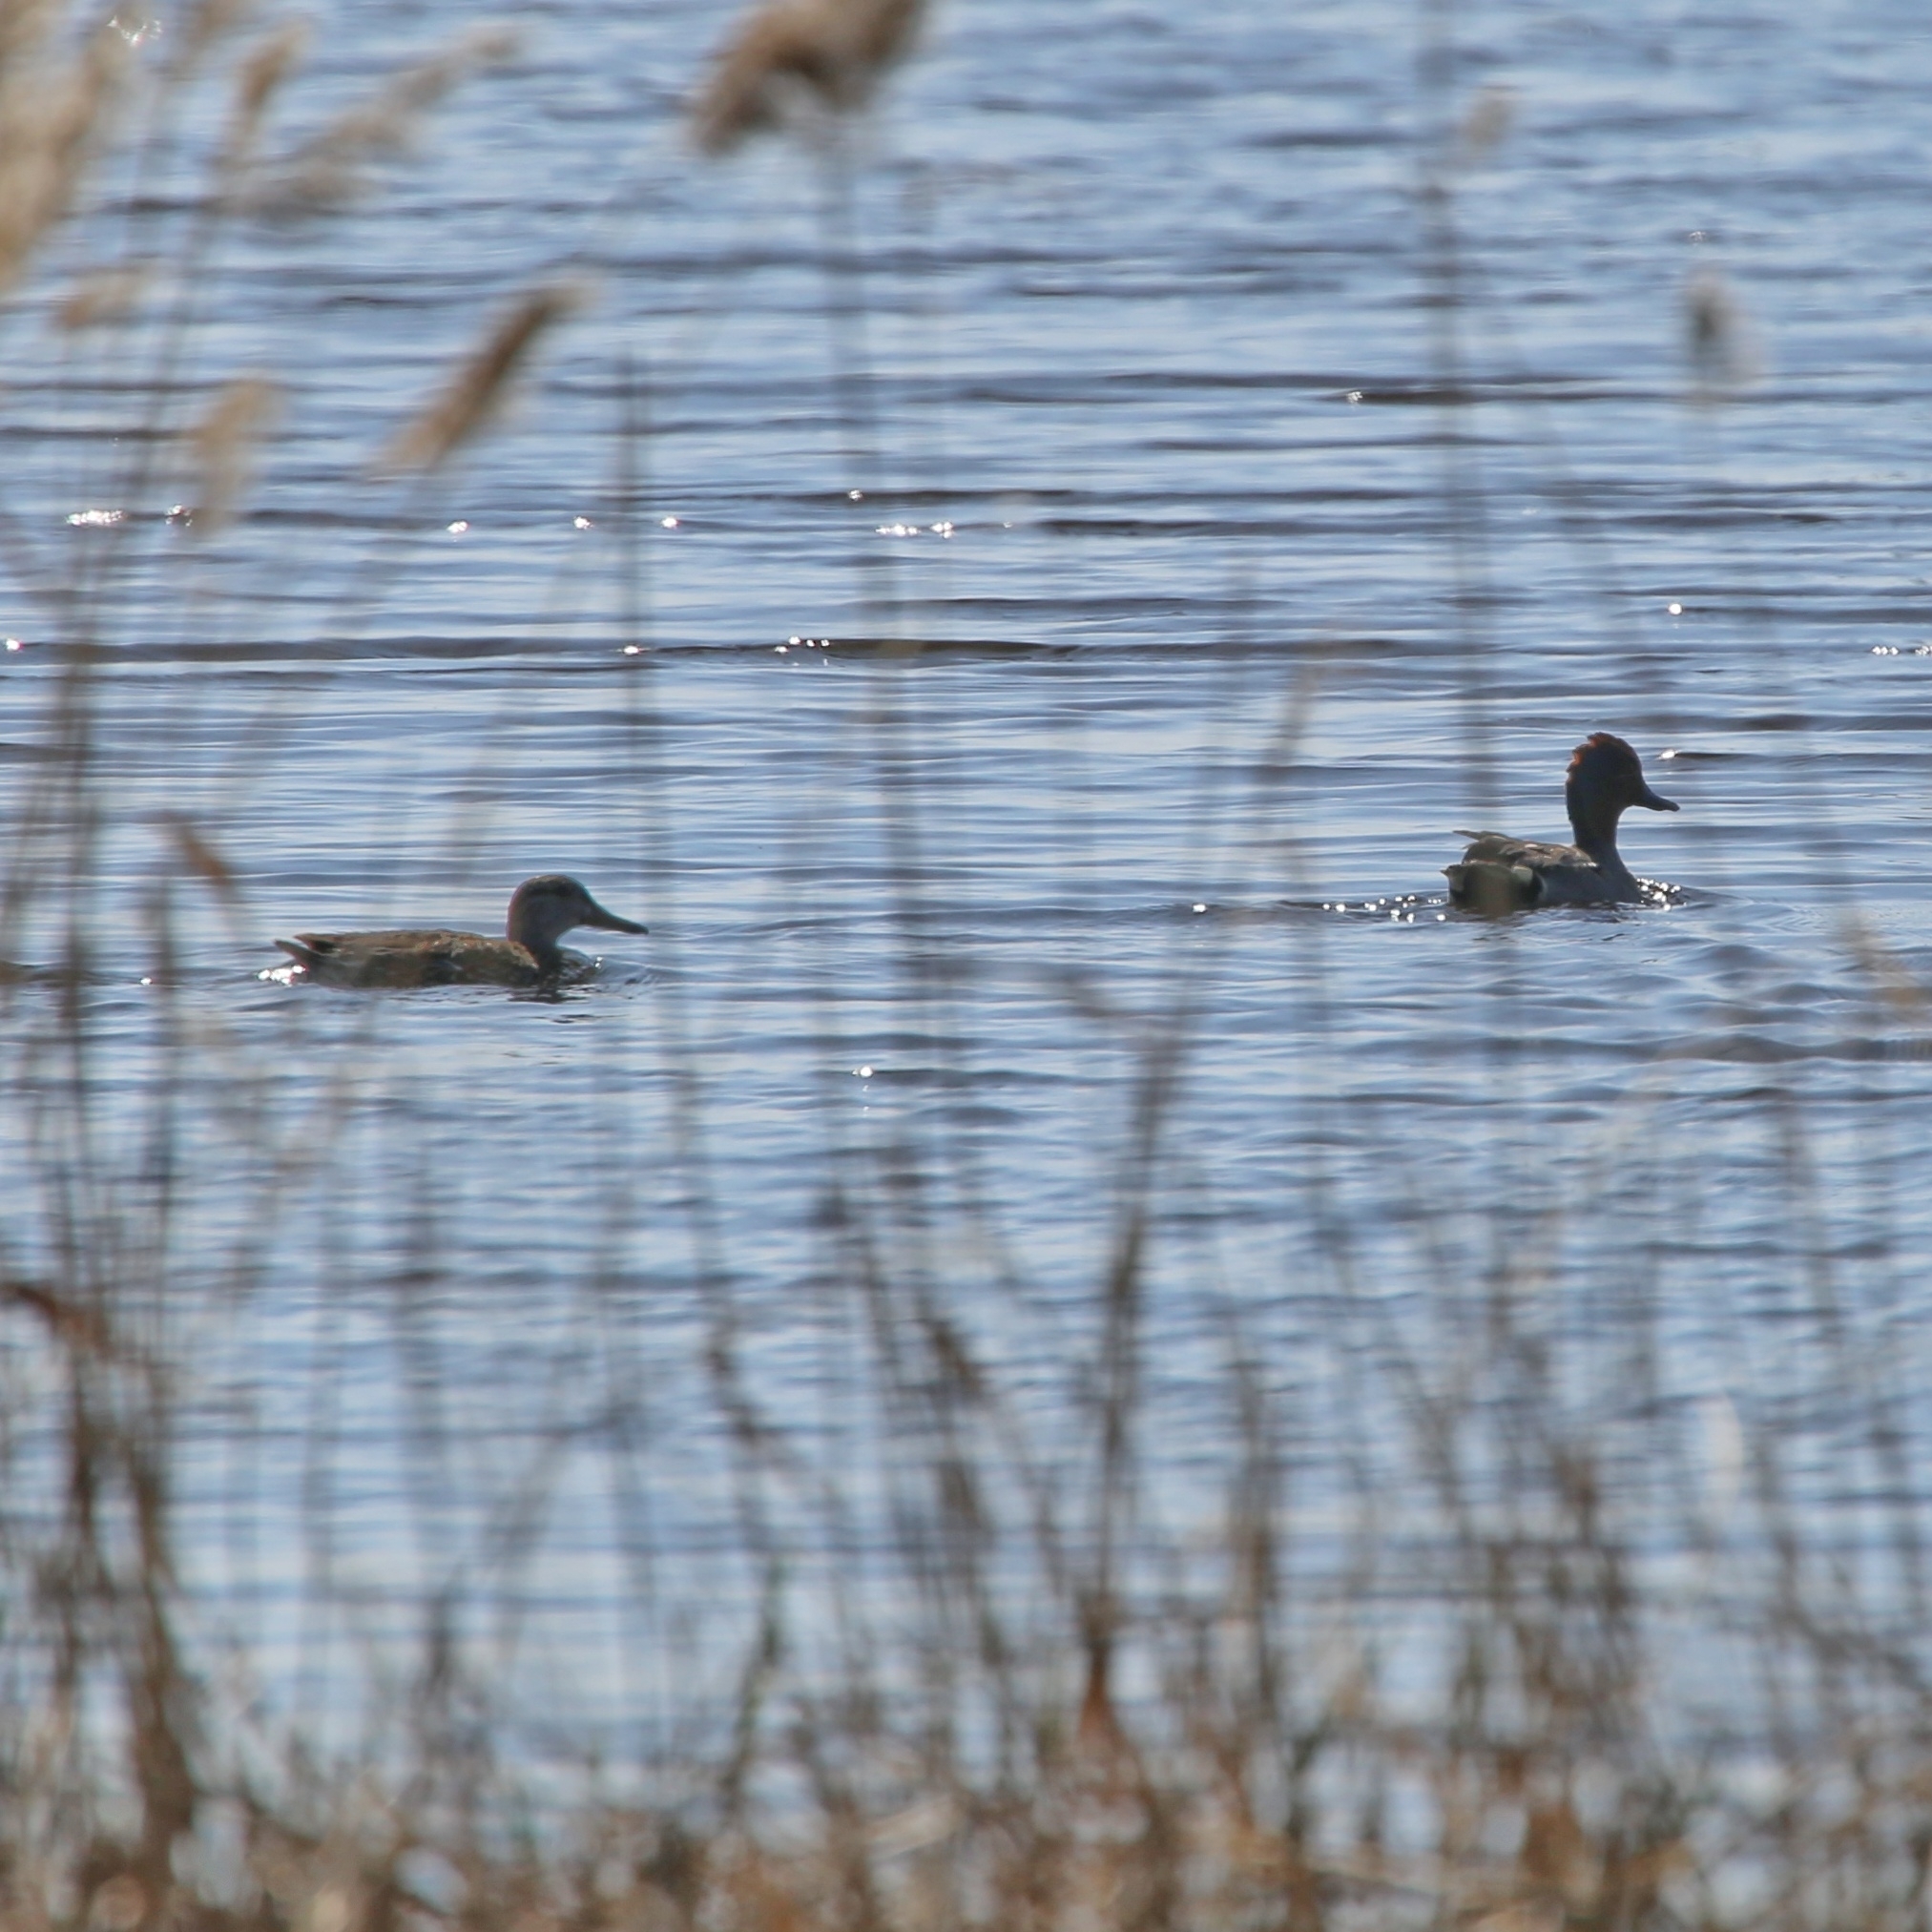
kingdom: Animalia
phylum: Chordata
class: Aves
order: Anseriformes
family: Anatidae
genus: Anas
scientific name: Anas crecca
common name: Eurasian teal
